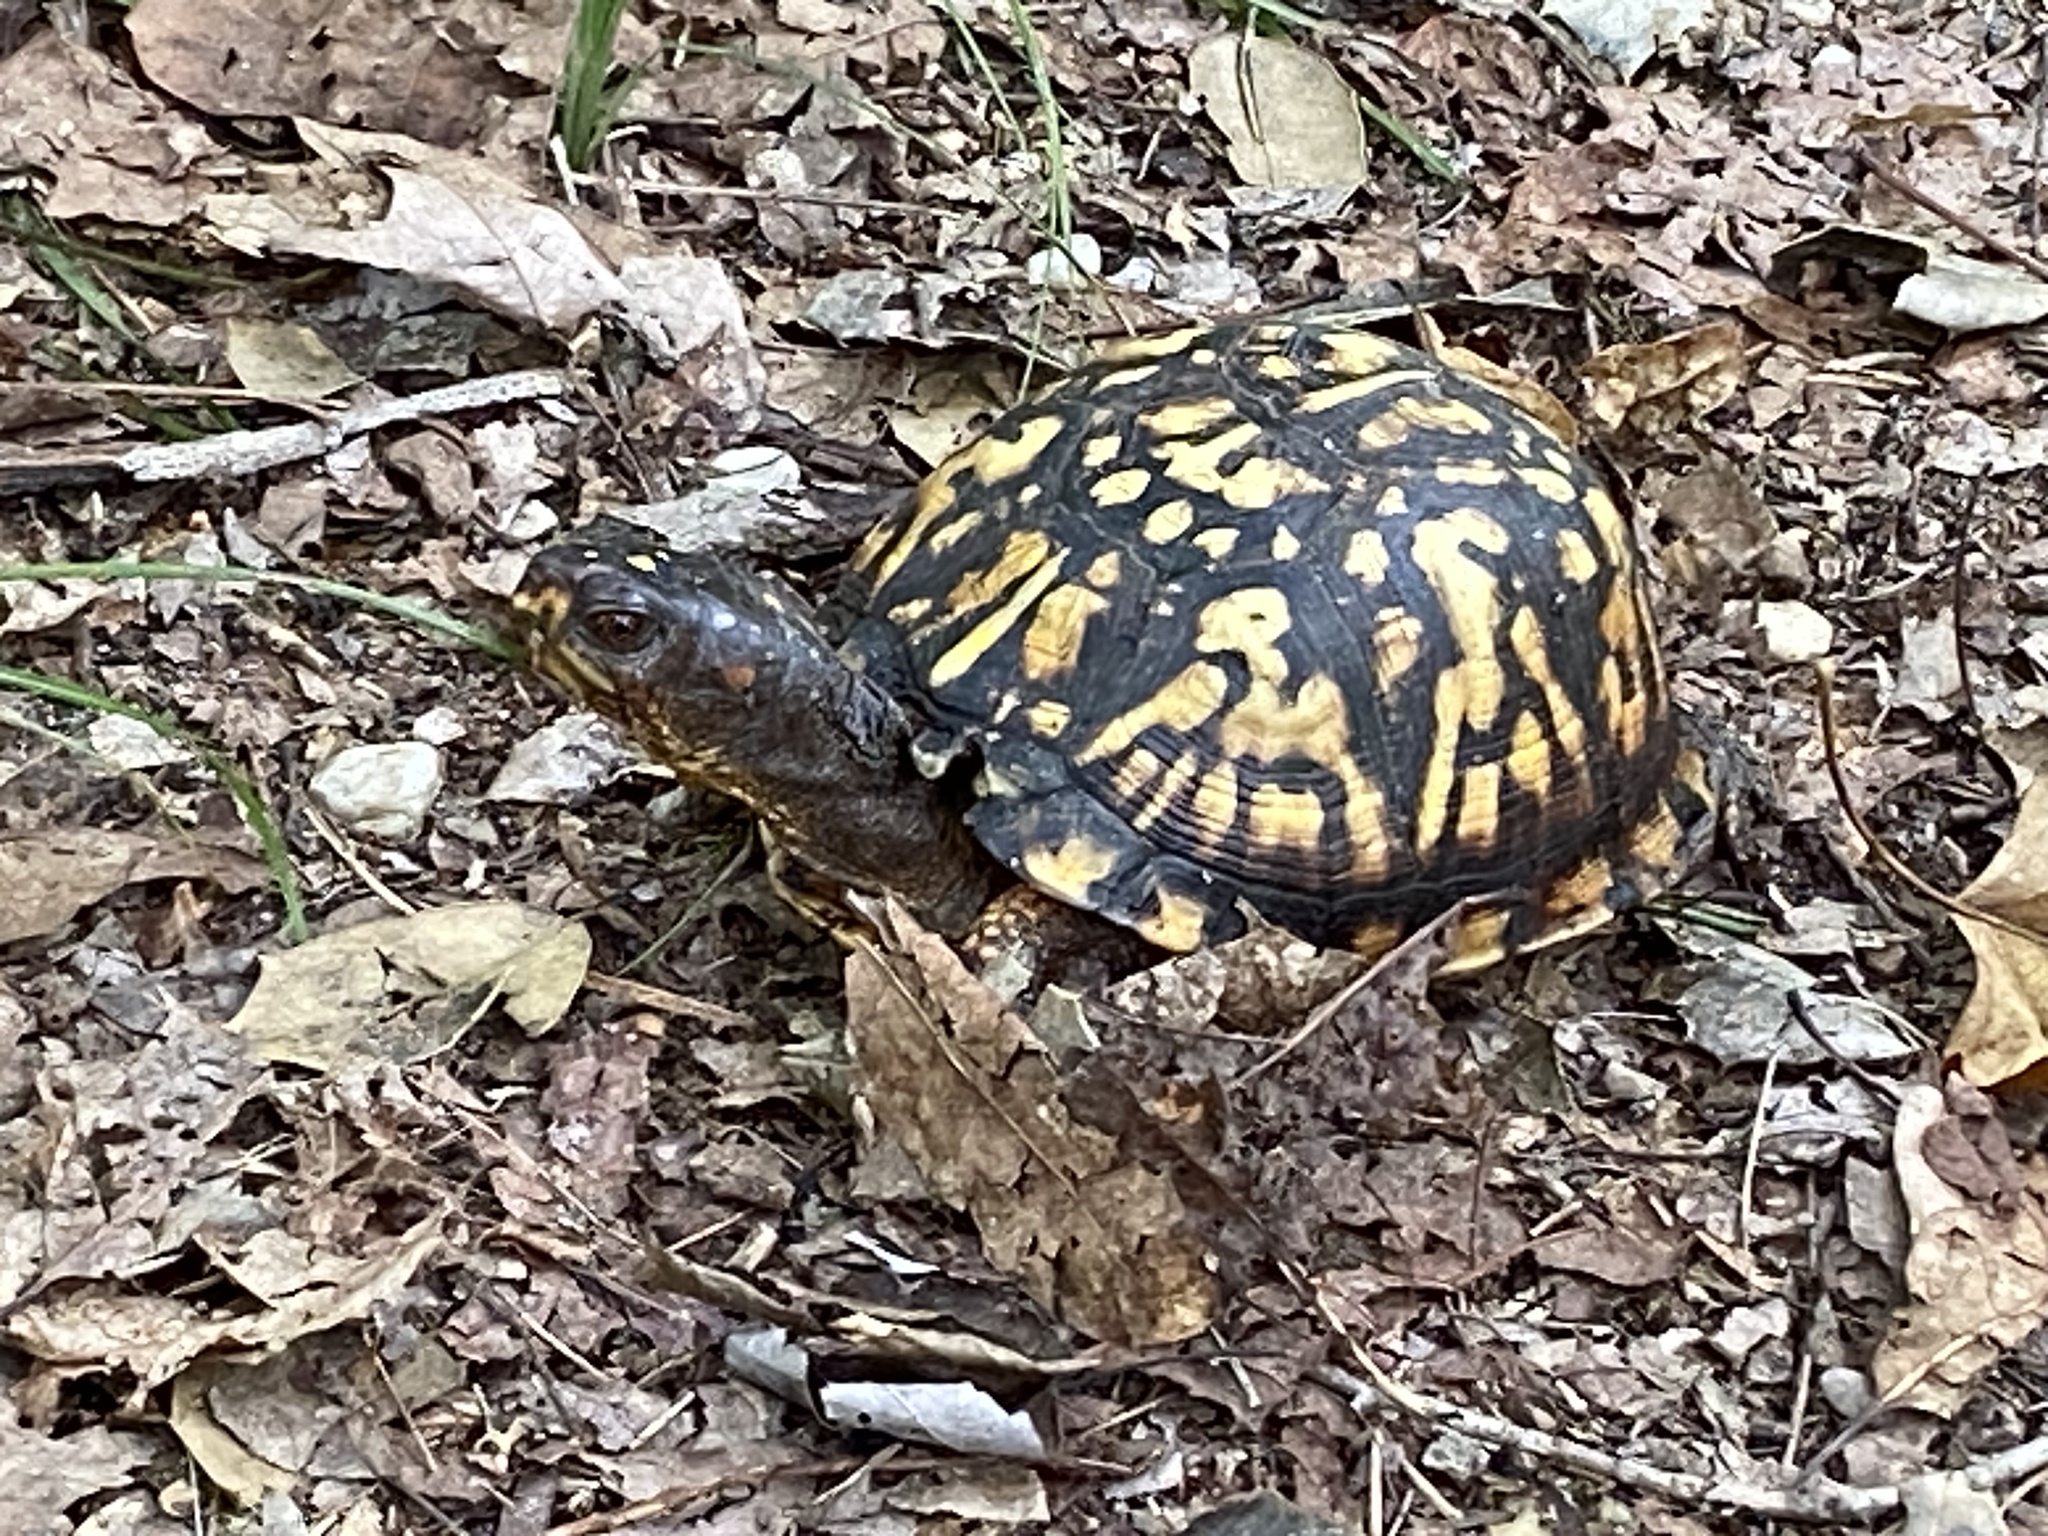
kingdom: Animalia
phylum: Chordata
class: Testudines
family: Emydidae
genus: Terrapene
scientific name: Terrapene carolina
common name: Common box turtle
